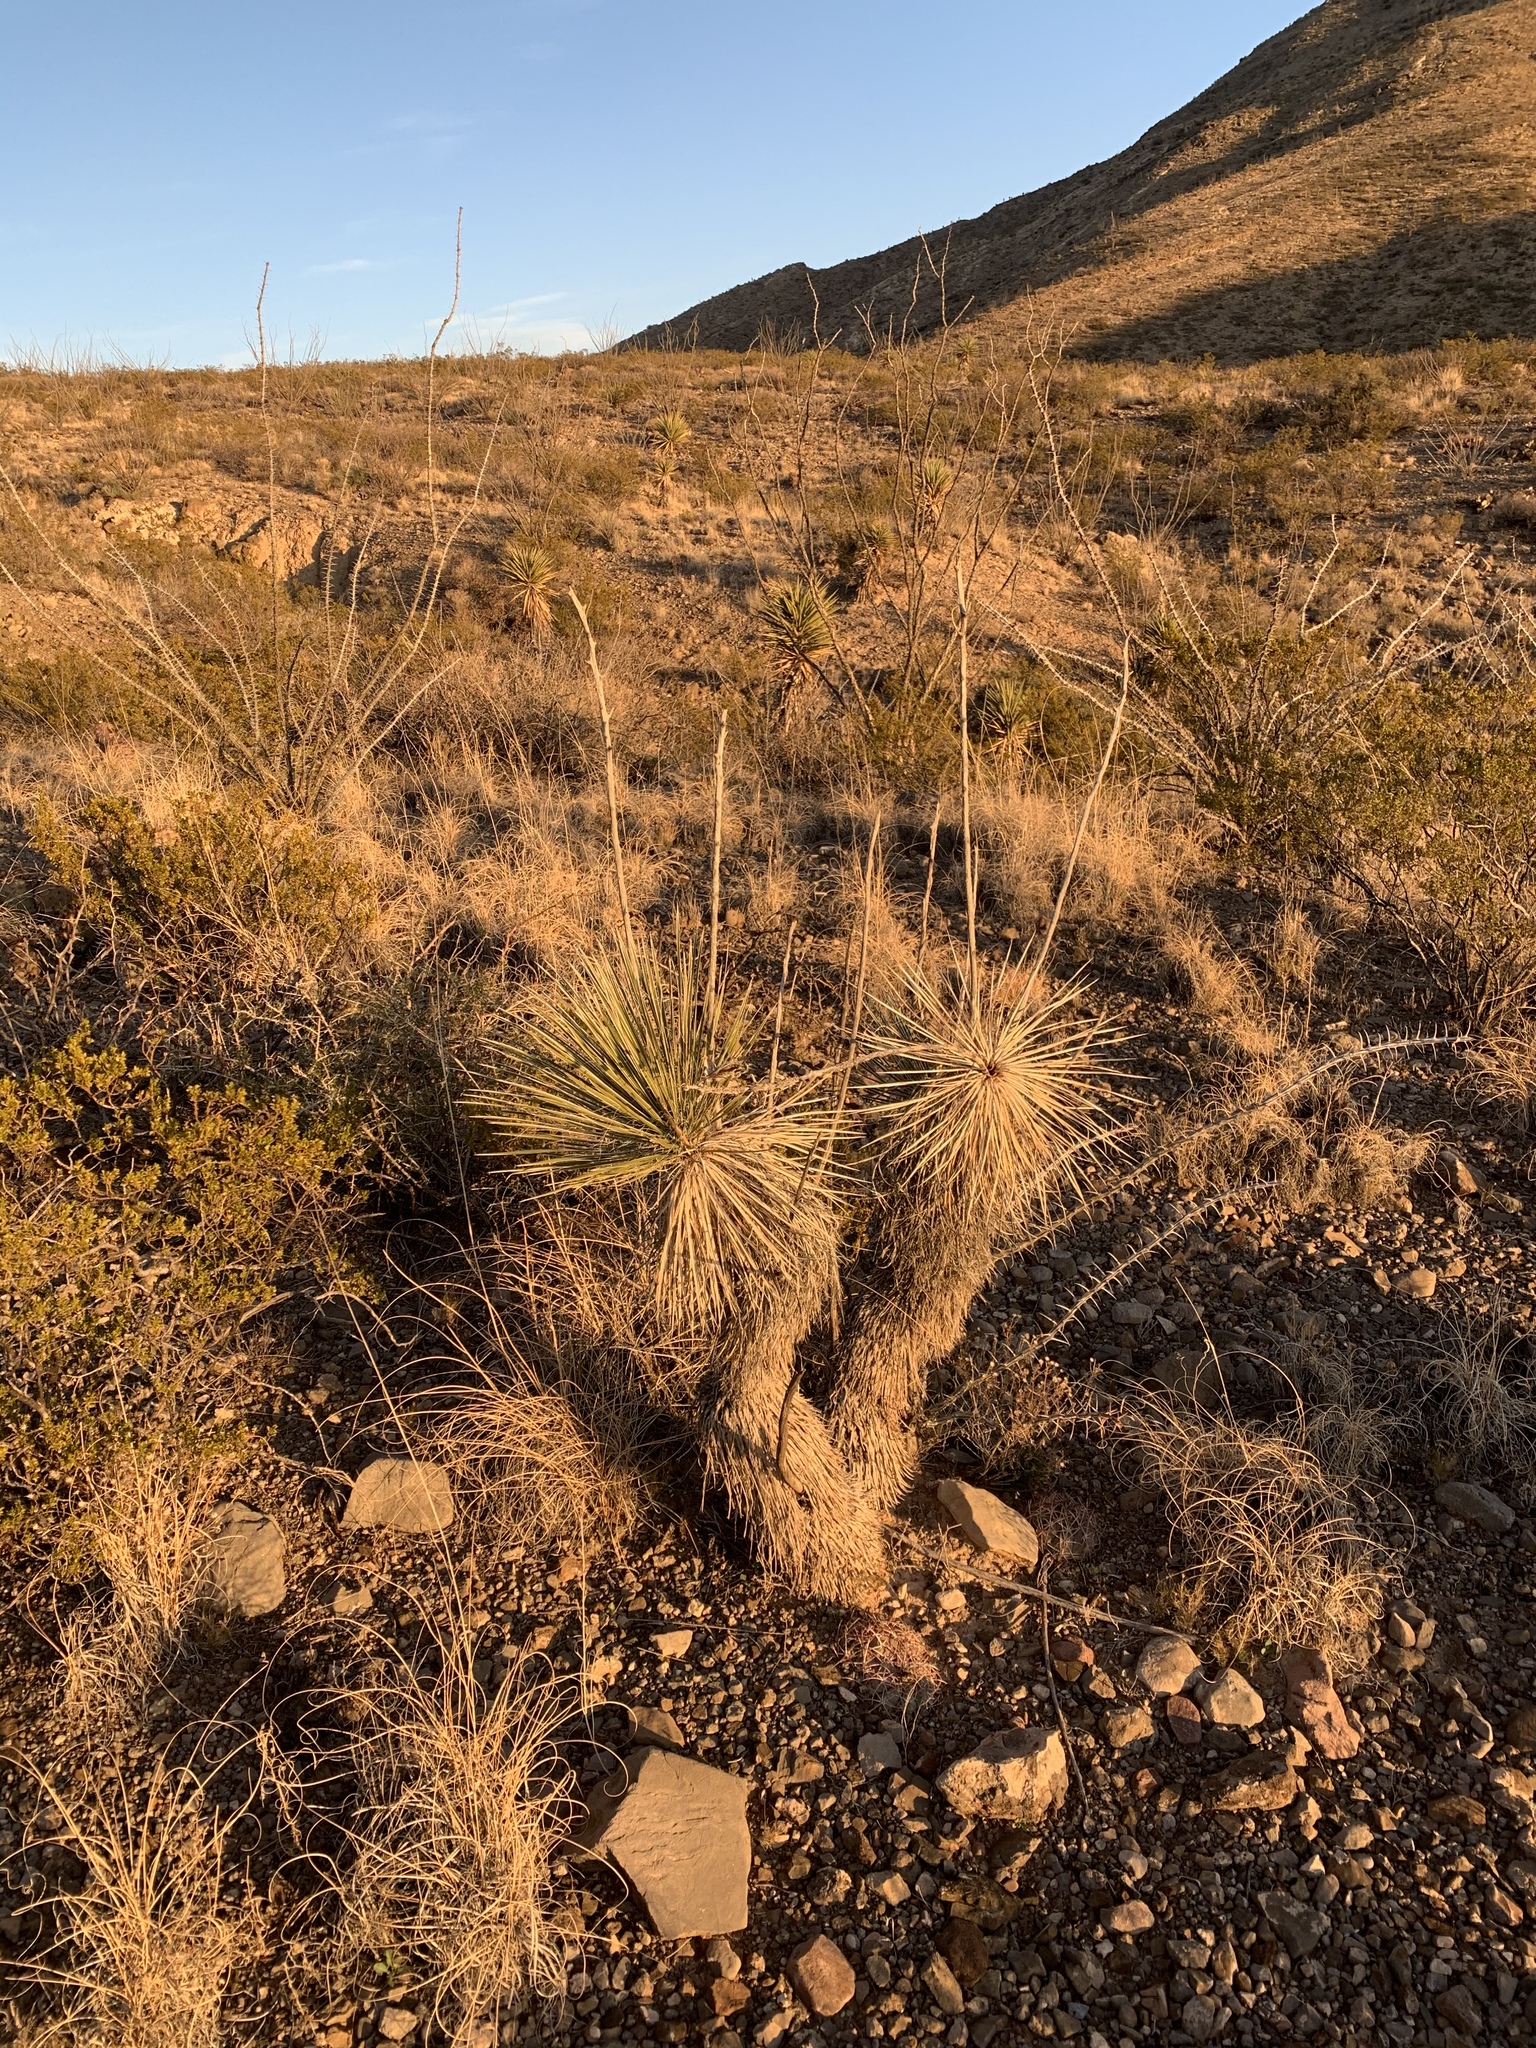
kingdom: Plantae
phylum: Tracheophyta
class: Liliopsida
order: Asparagales
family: Asparagaceae
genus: Yucca
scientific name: Yucca elata
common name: Palmella
